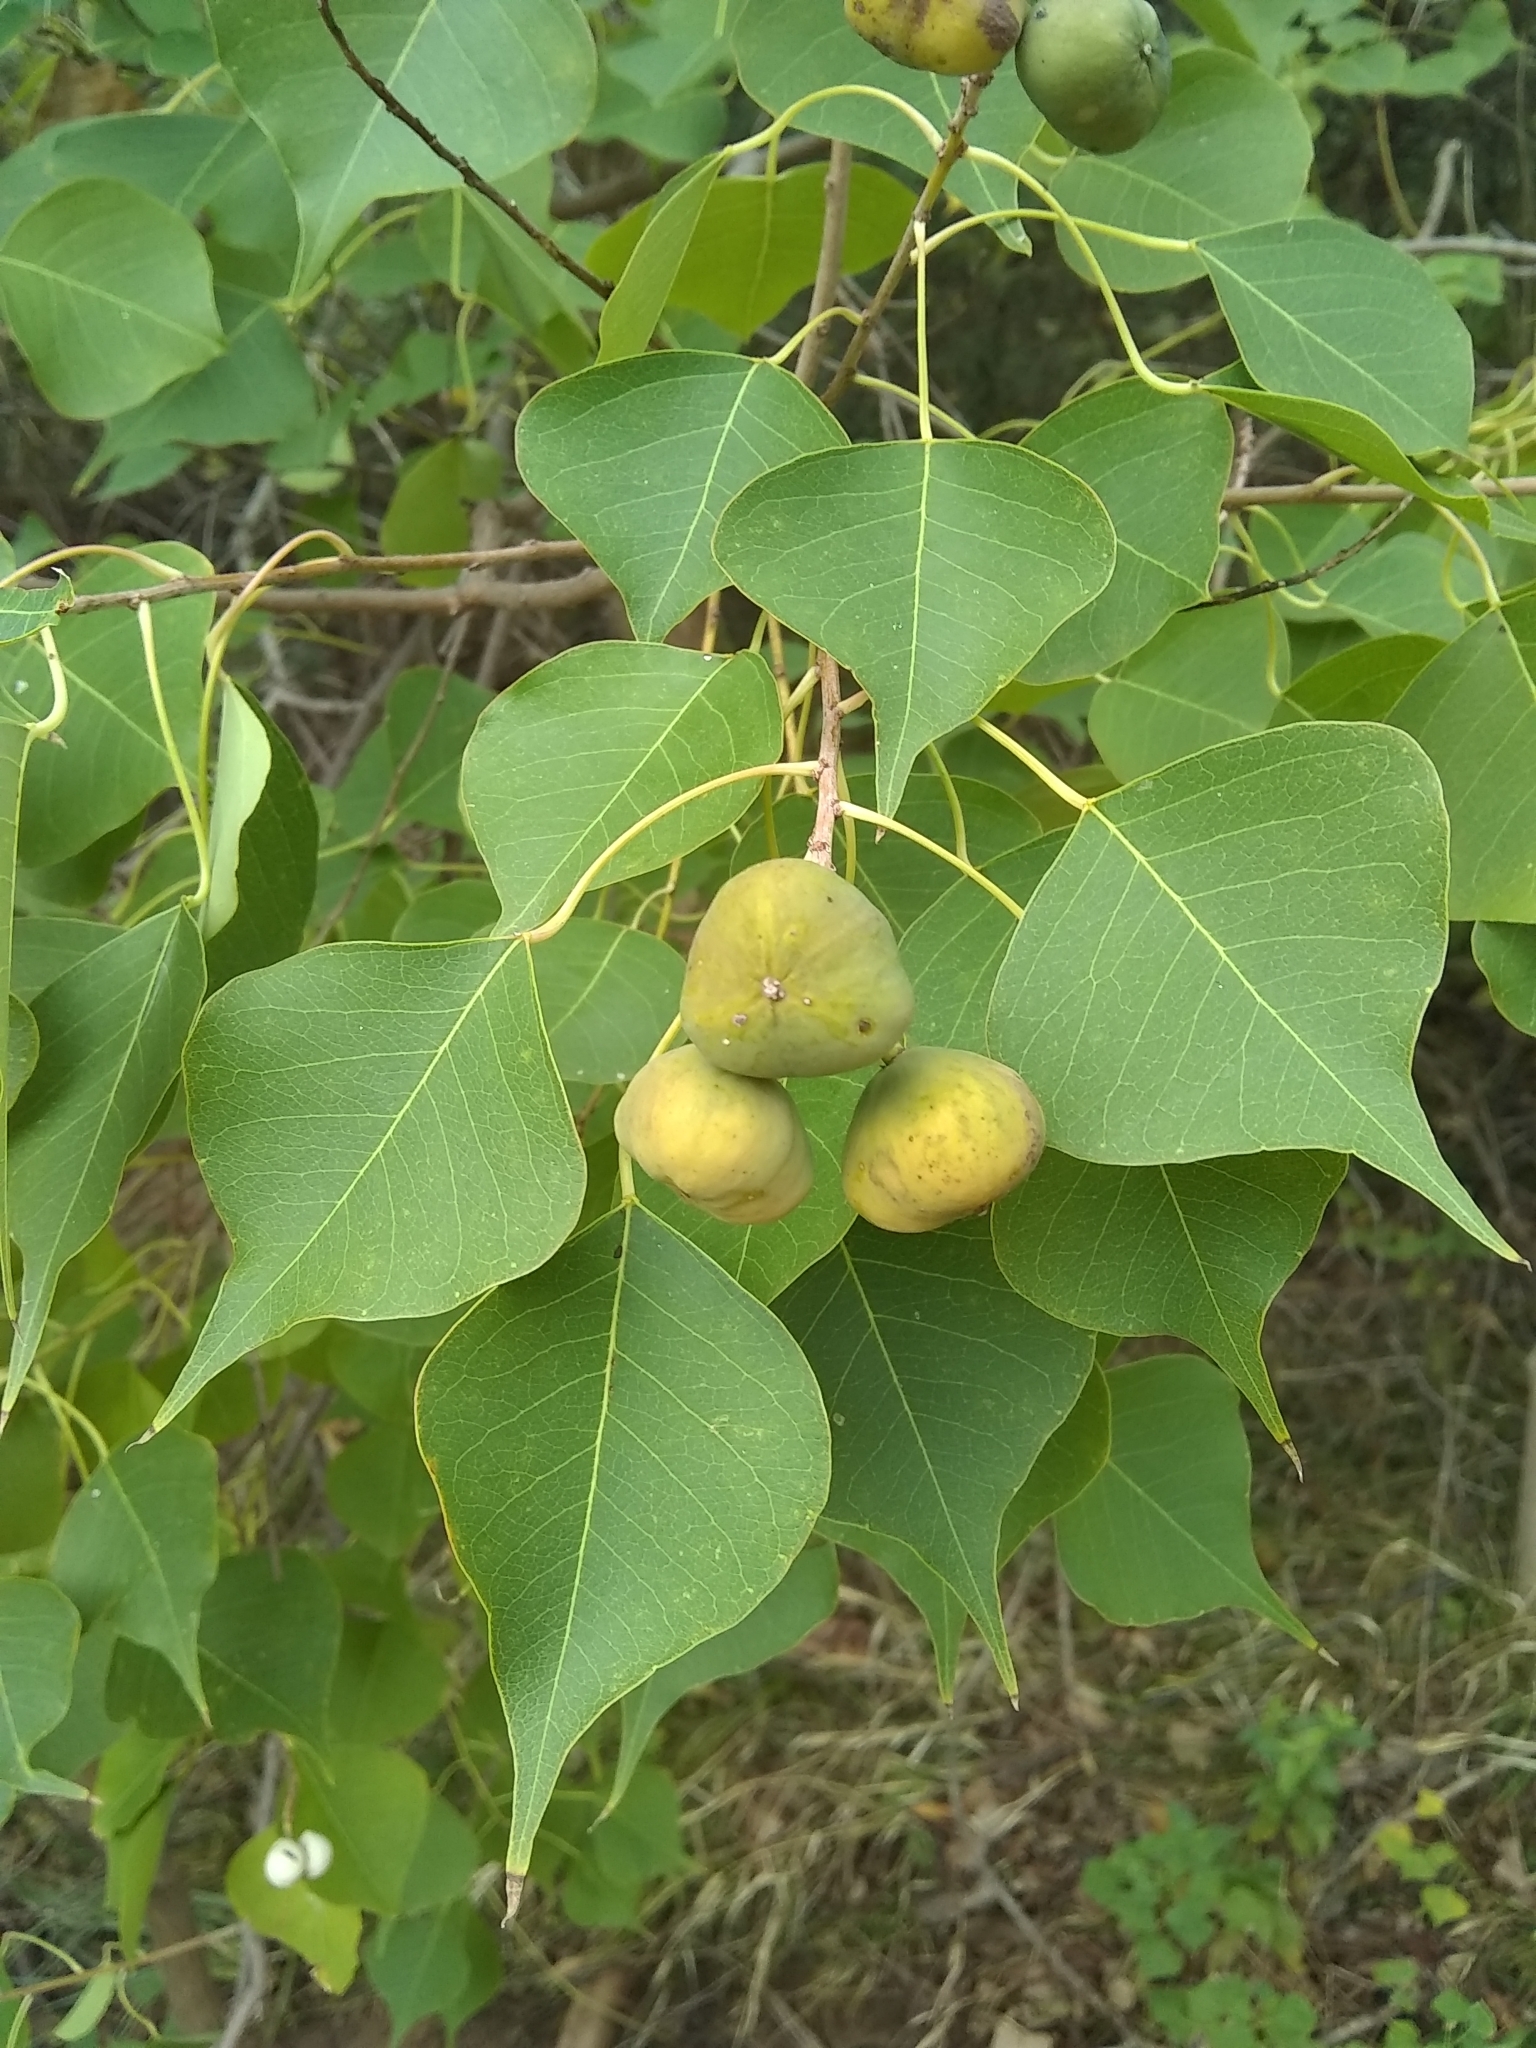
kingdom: Plantae
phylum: Tracheophyta
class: Magnoliopsida
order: Malpighiales
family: Euphorbiaceae
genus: Triadica
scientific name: Triadica sebifera
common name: Chinese tallow
